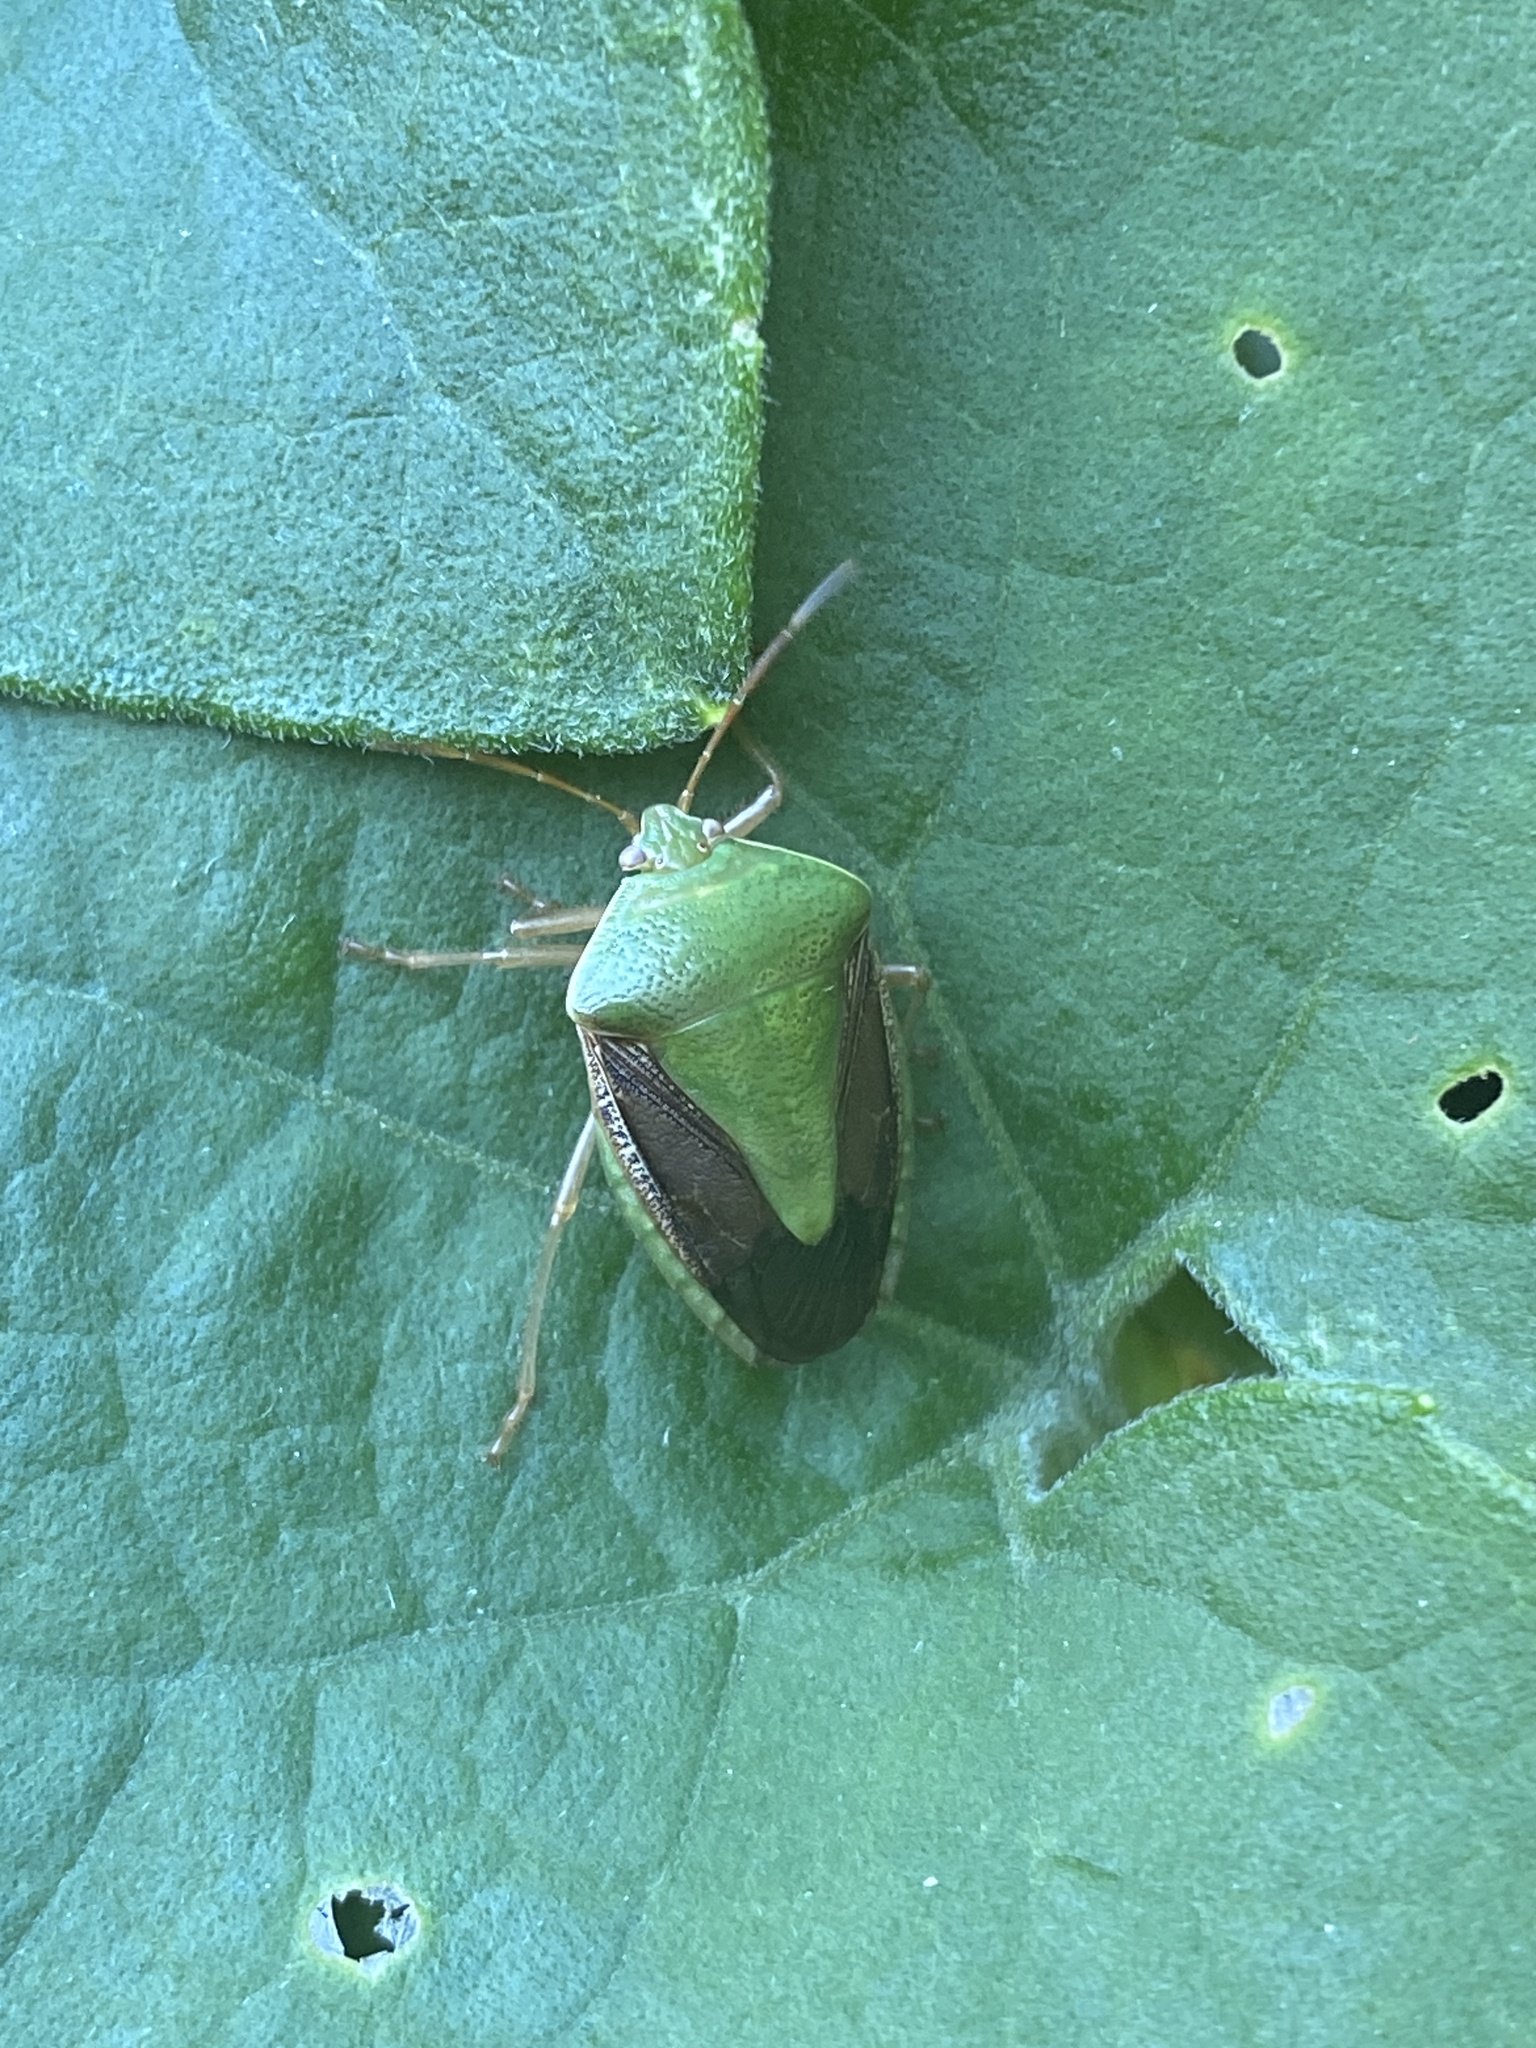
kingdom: Animalia
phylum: Arthropoda
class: Insecta
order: Hemiptera
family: Pentatomidae
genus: Edessa
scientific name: Edessa meditabunda
